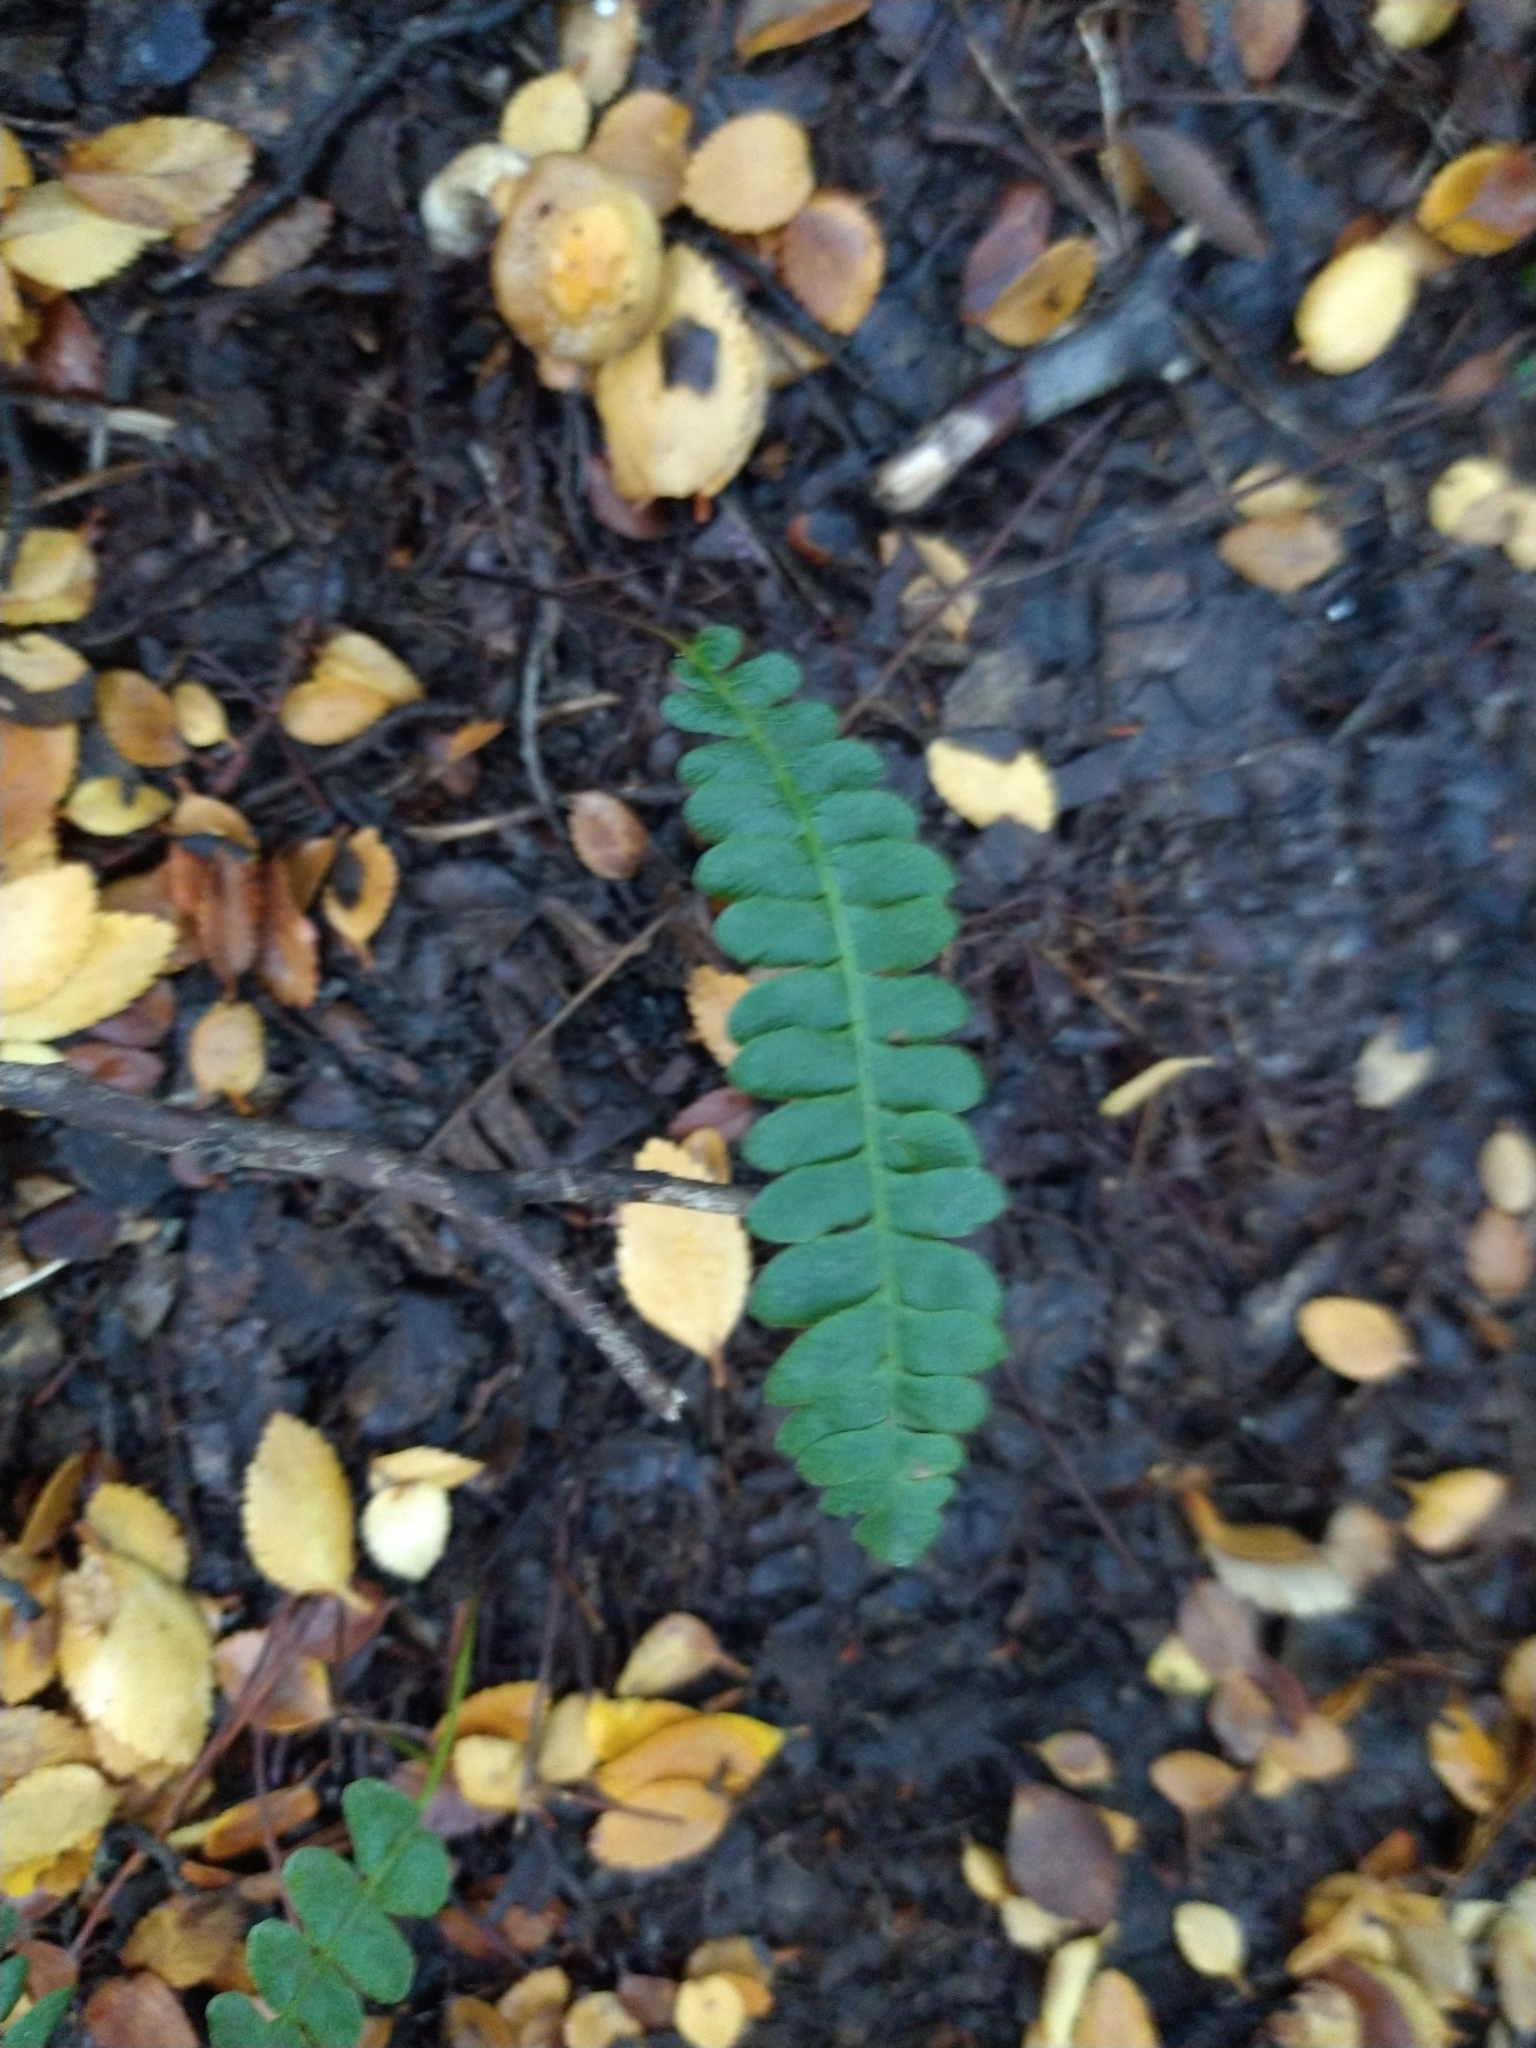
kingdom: Plantae
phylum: Tracheophyta
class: Polypodiopsida
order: Polypodiales
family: Blechnaceae
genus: Austroblechnum
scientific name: Austroblechnum penna-marina
